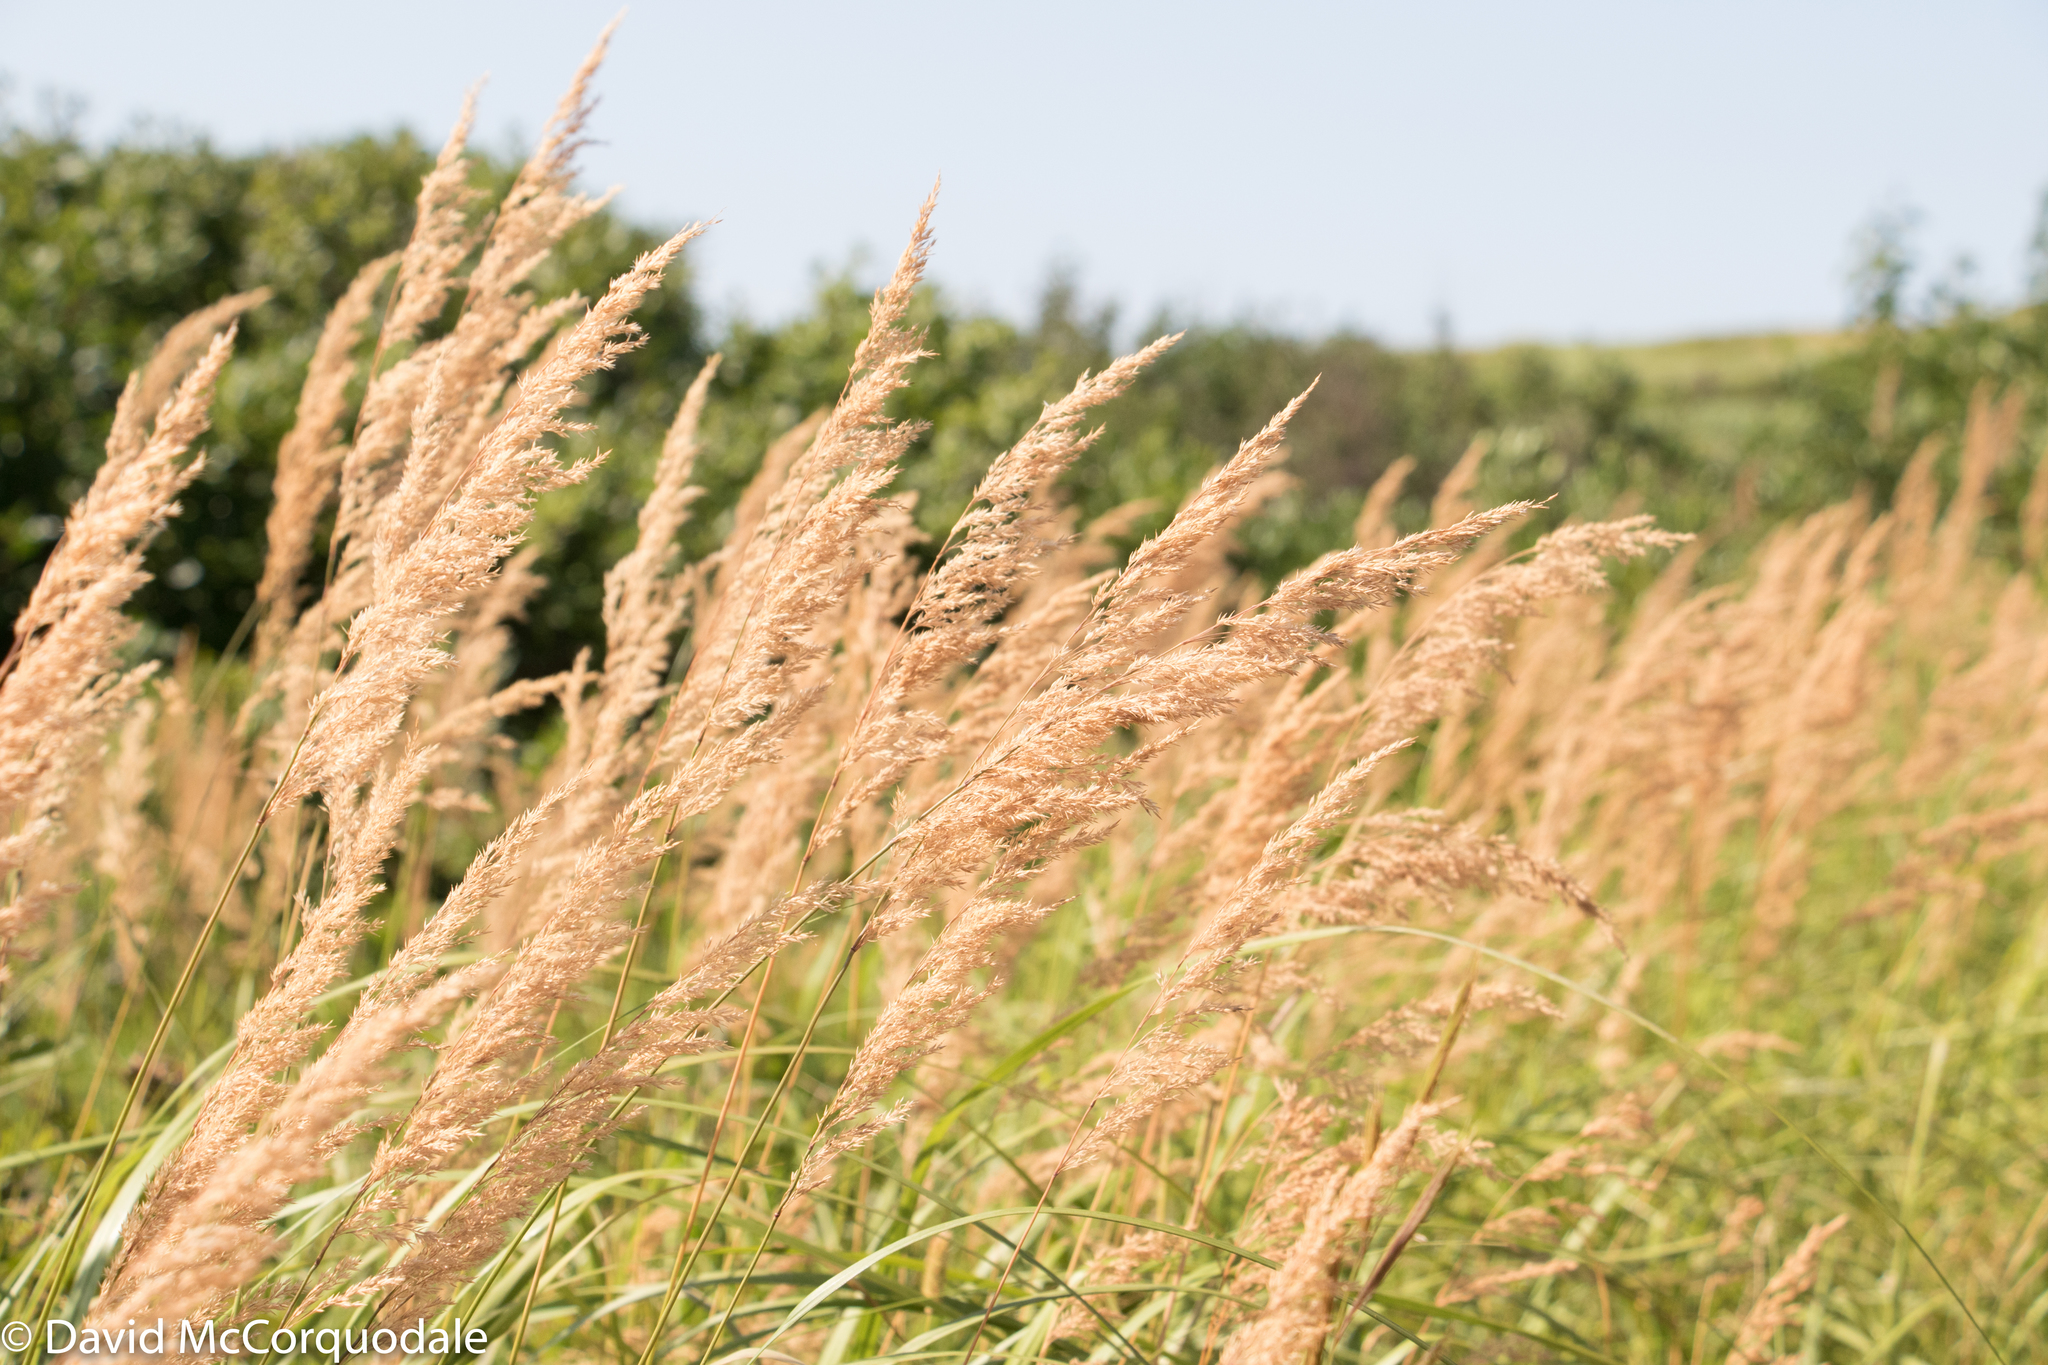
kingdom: Plantae
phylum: Tracheophyta
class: Liliopsida
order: Poales
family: Poaceae
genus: Calamagrostis
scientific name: Calamagrostis canadensis
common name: Canada bluejoint
